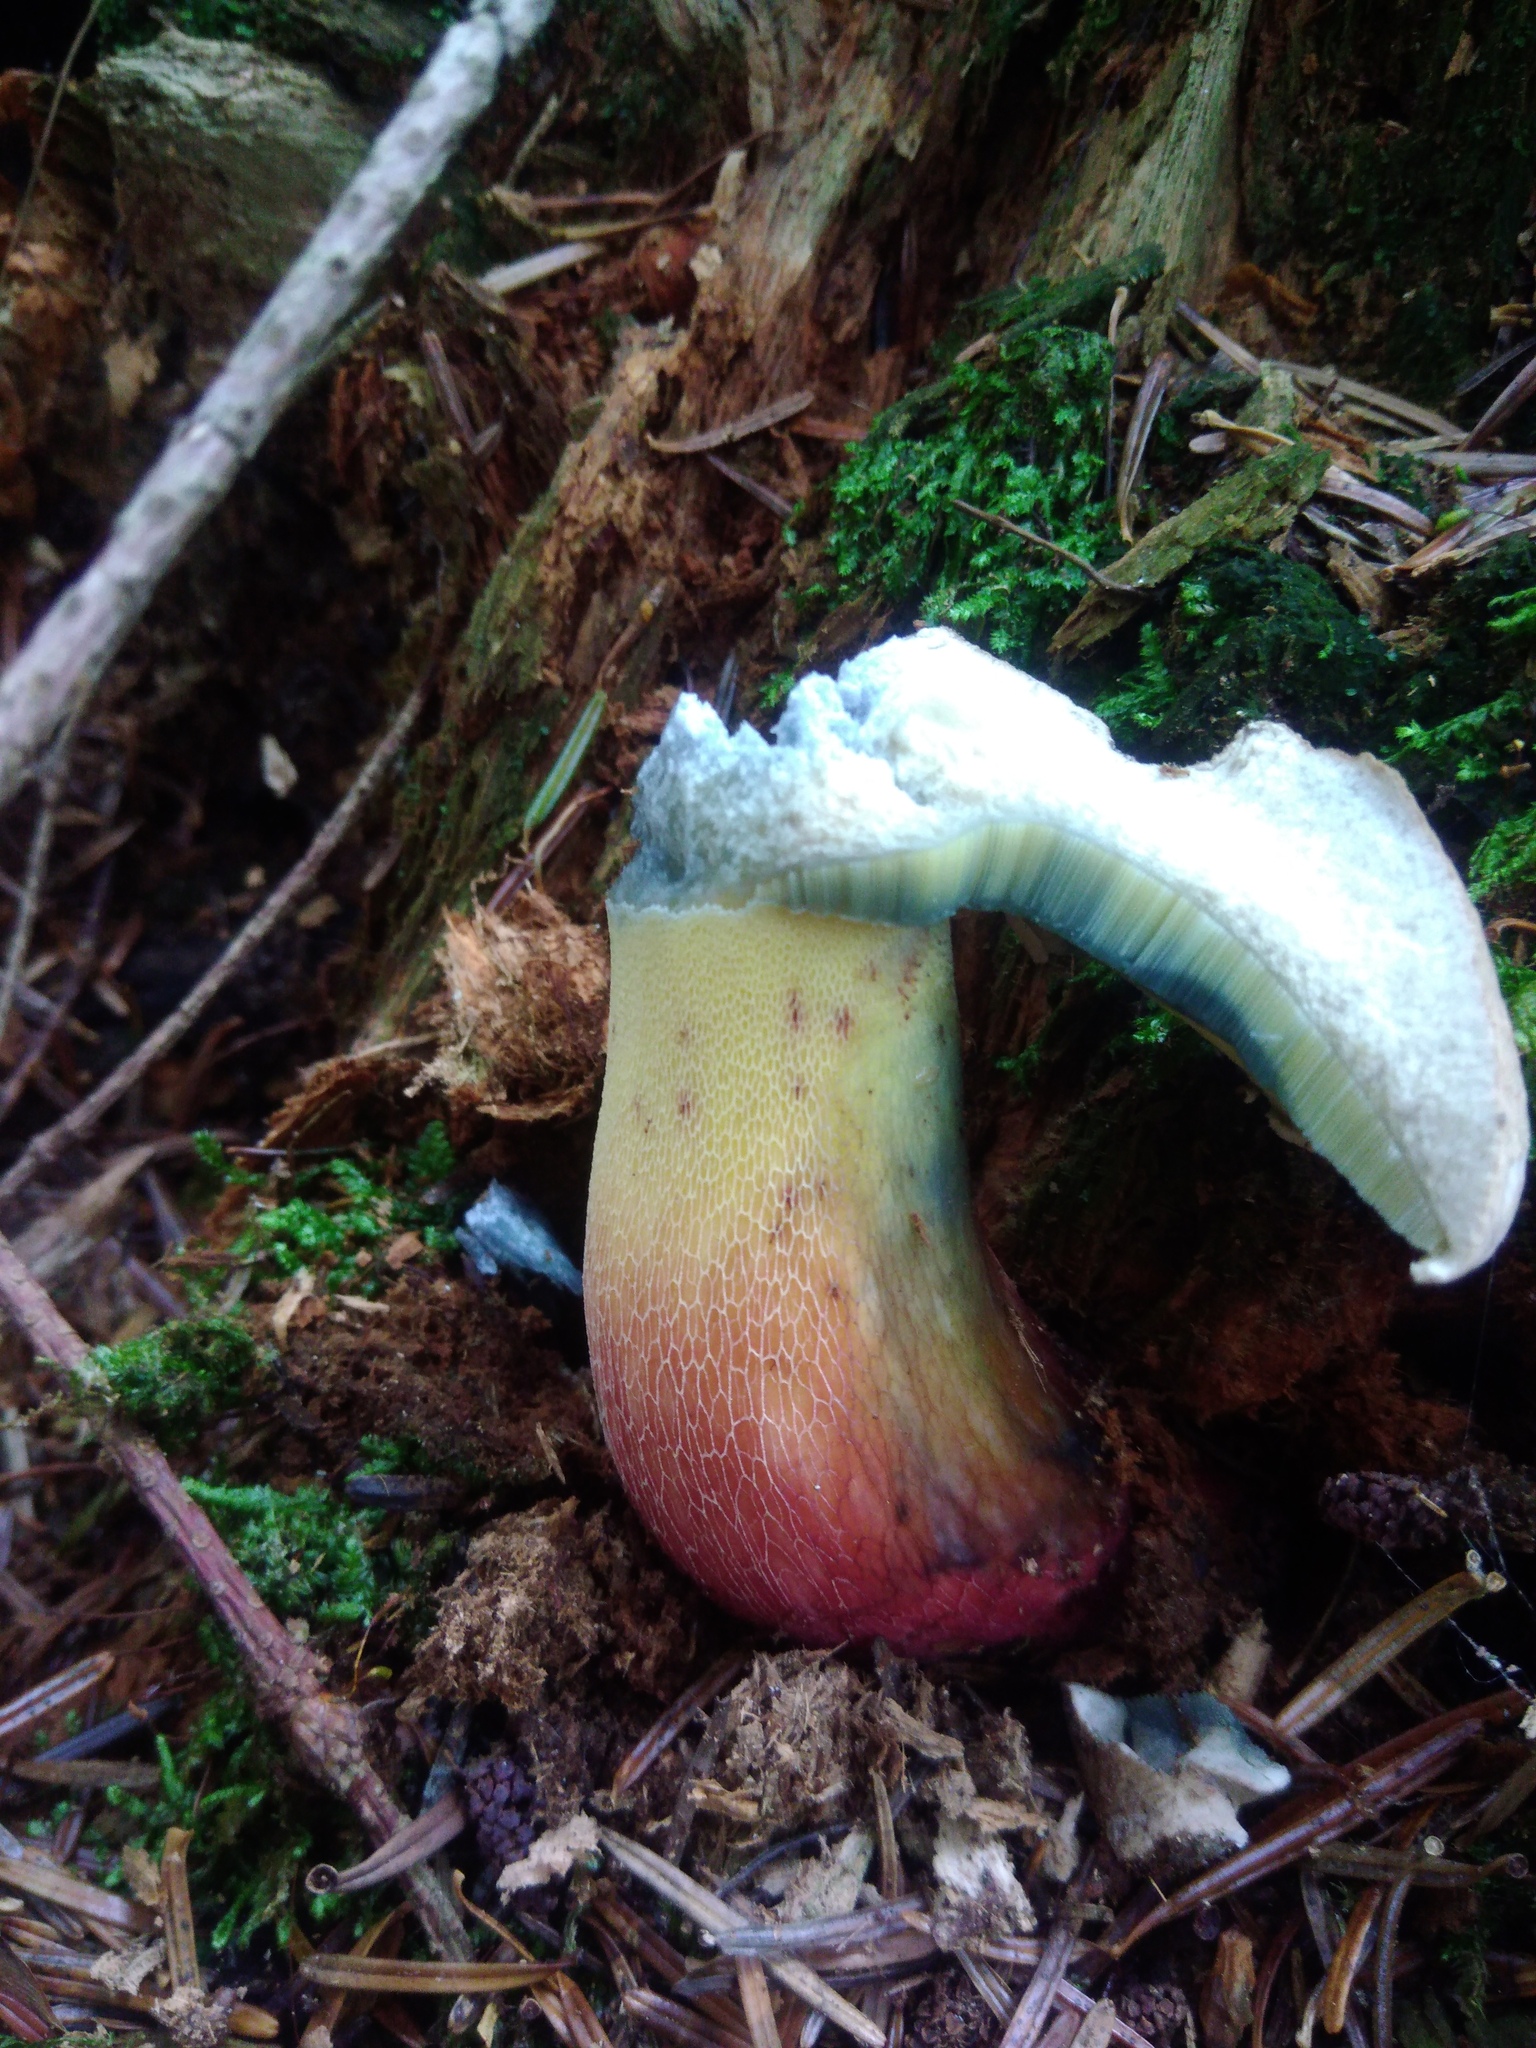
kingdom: Fungi
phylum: Basidiomycota
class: Agaricomycetes
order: Boletales
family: Boletaceae
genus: Caloboletus
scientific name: Caloboletus calopus
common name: Bitter beech bolete
